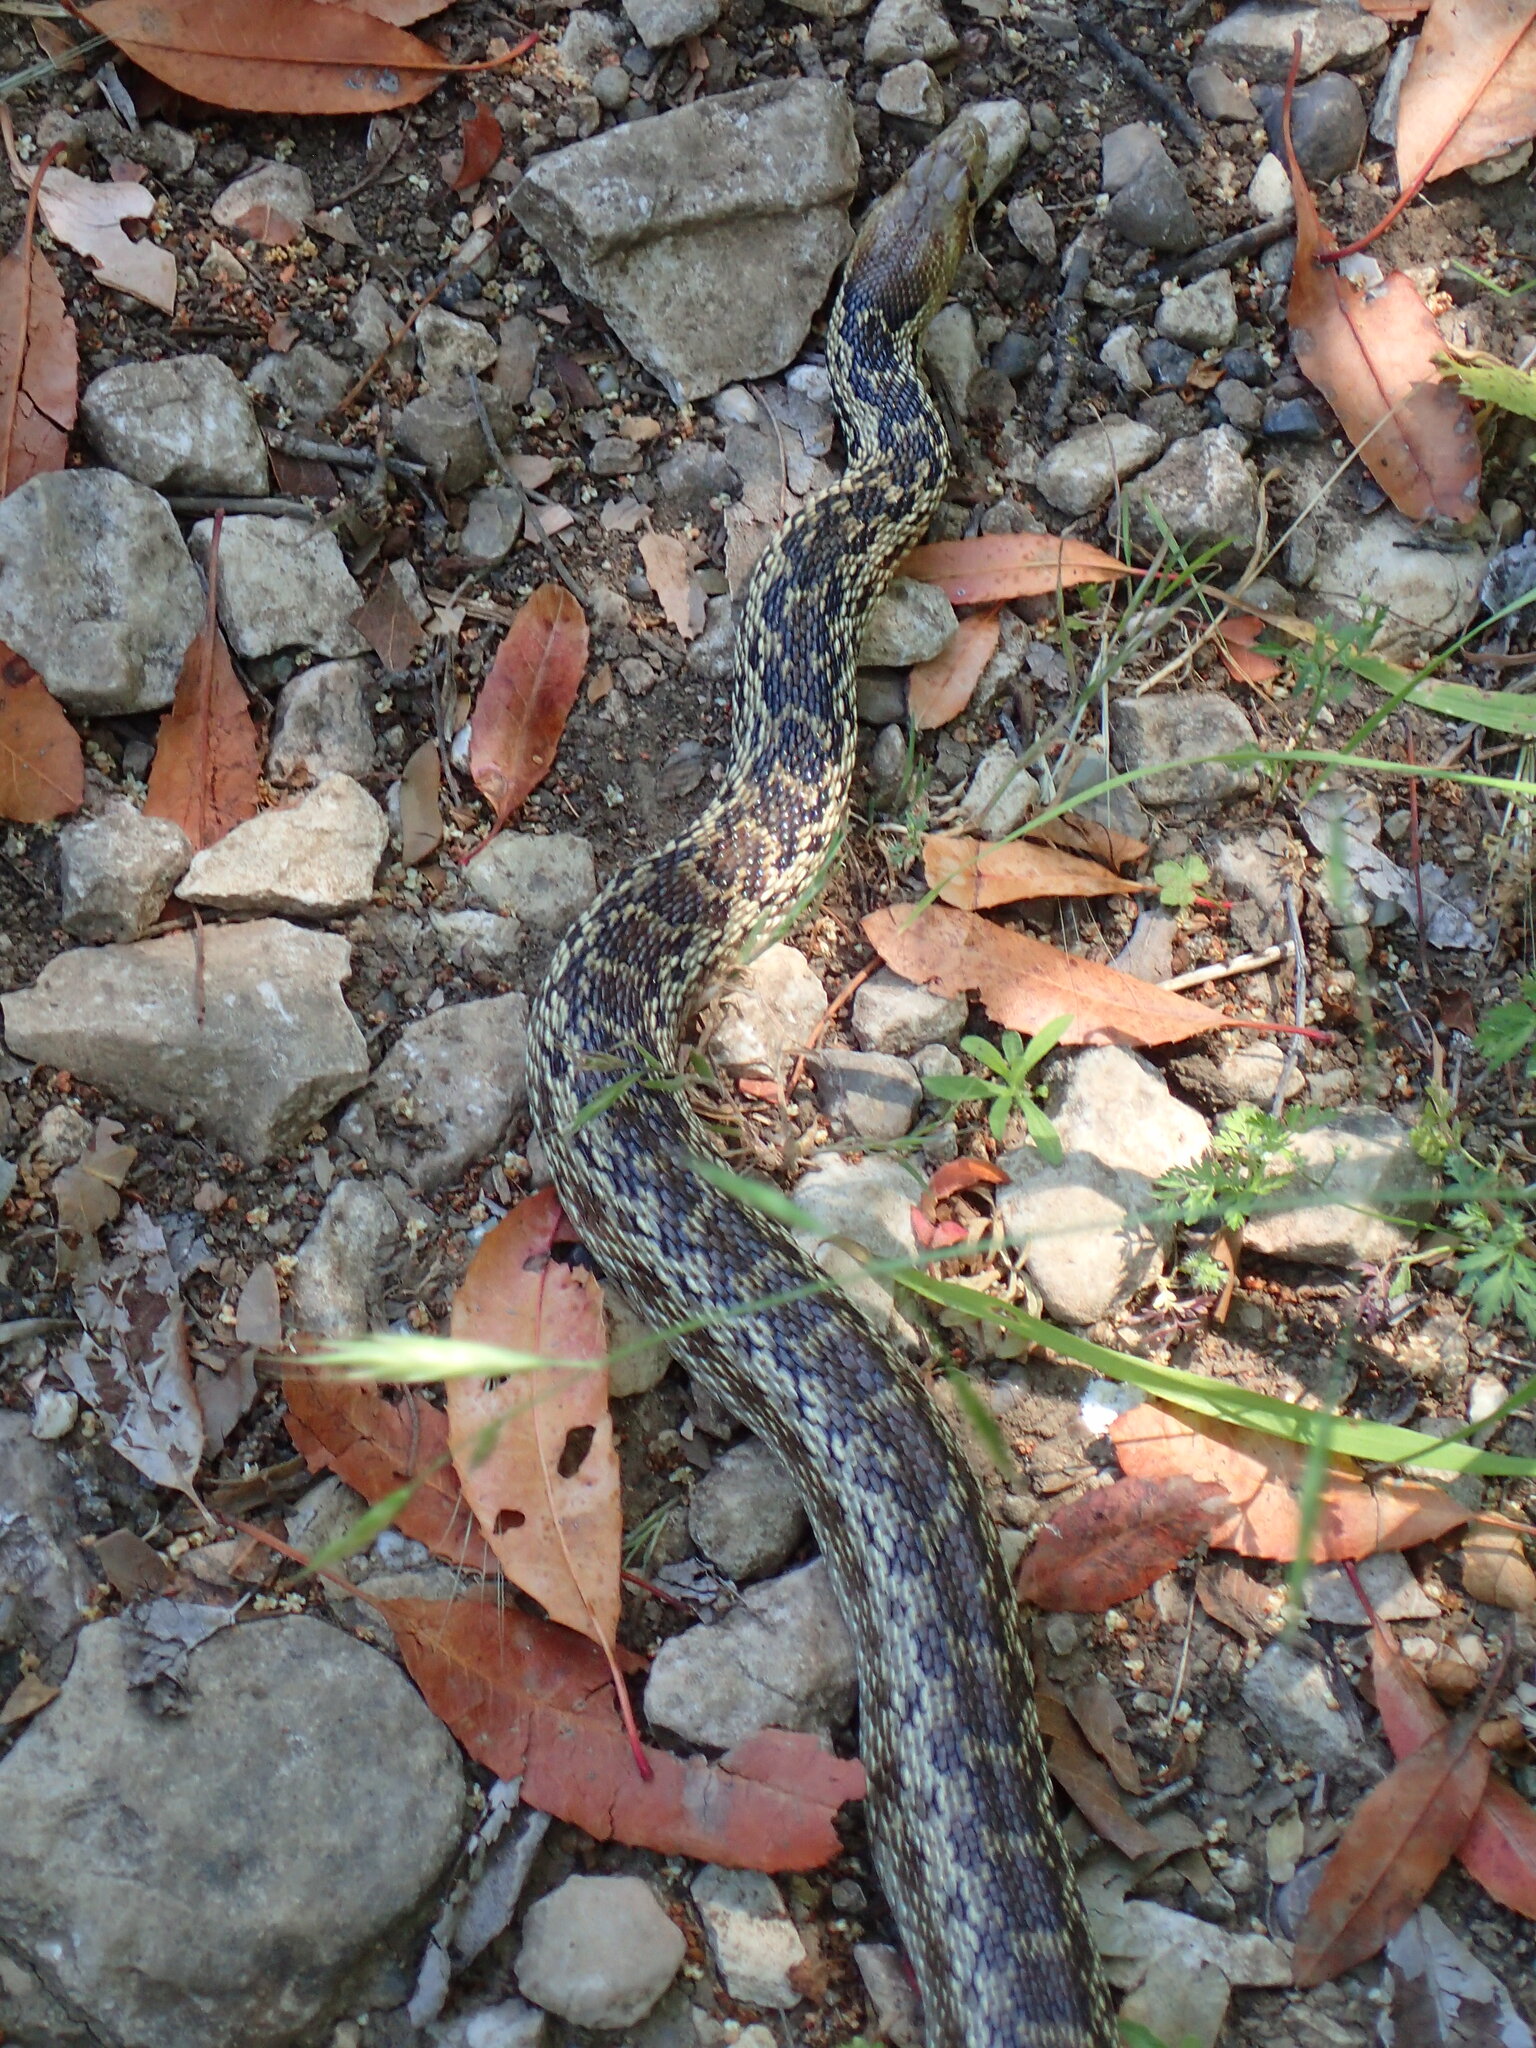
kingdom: Animalia
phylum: Chordata
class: Squamata
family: Colubridae
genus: Pituophis
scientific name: Pituophis catenifer
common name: Gopher snake
